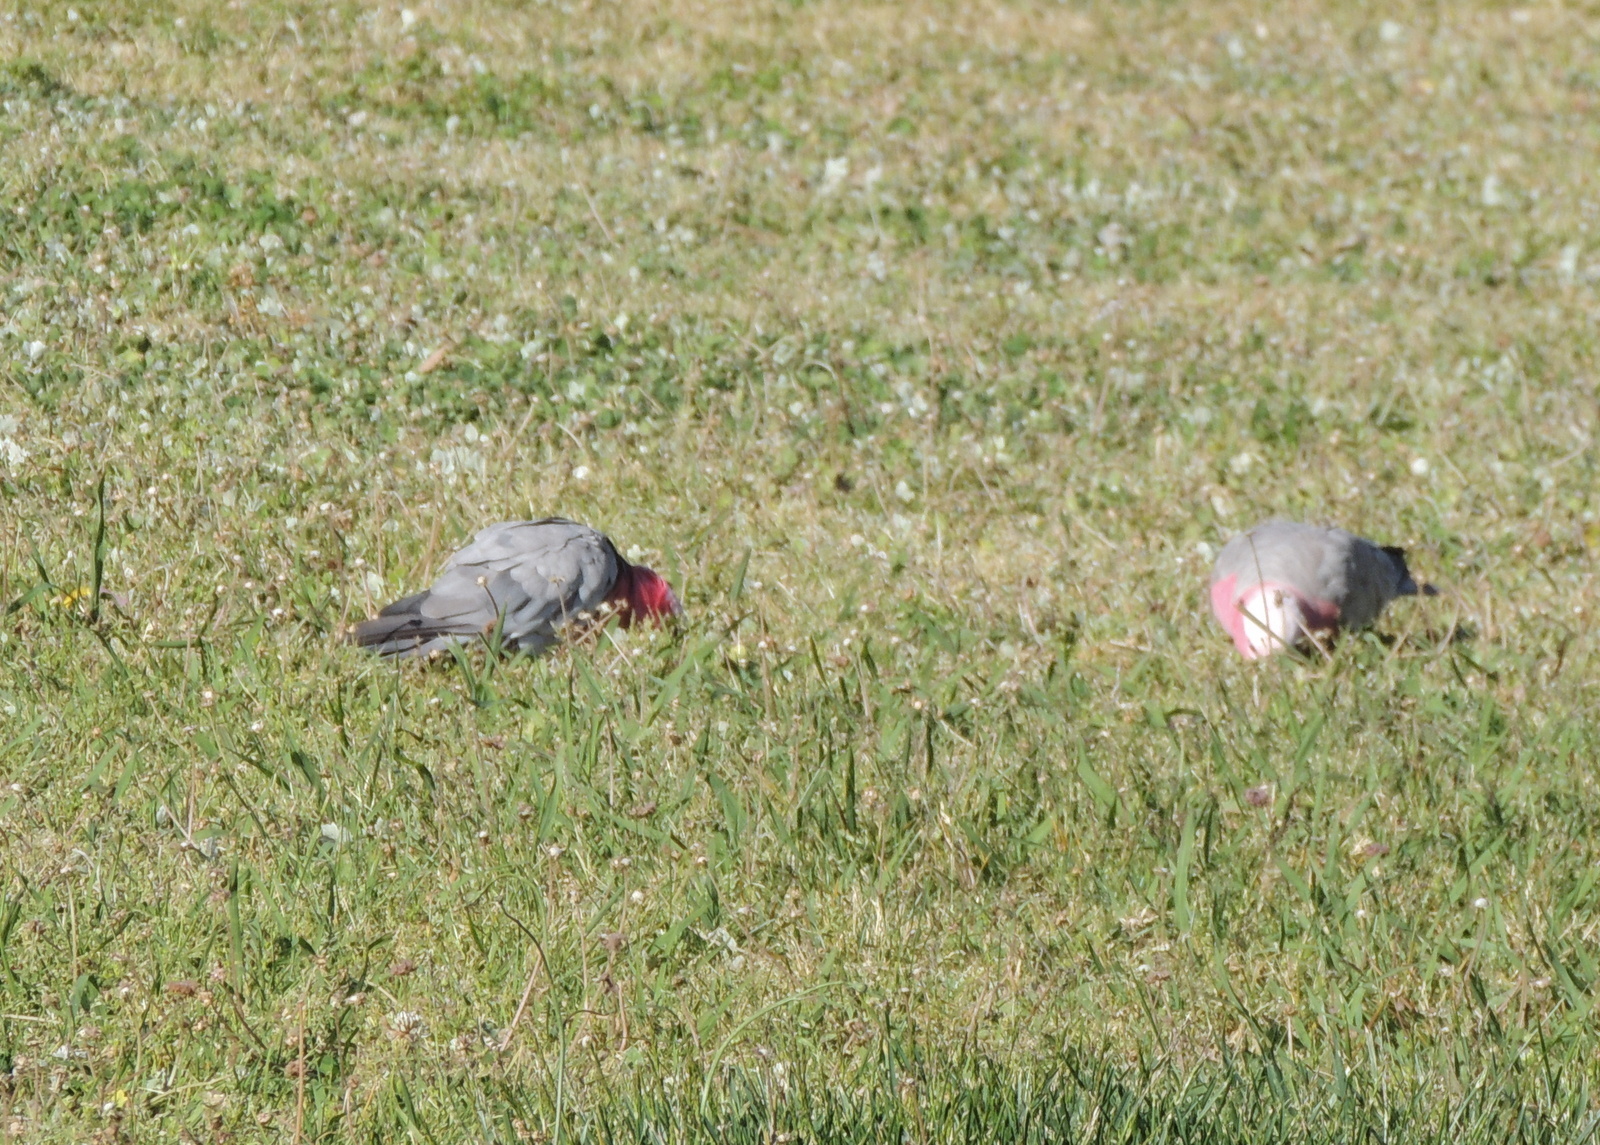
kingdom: Animalia
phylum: Chordata
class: Aves
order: Psittaciformes
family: Psittacidae
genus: Eolophus
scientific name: Eolophus roseicapilla
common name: Galah
